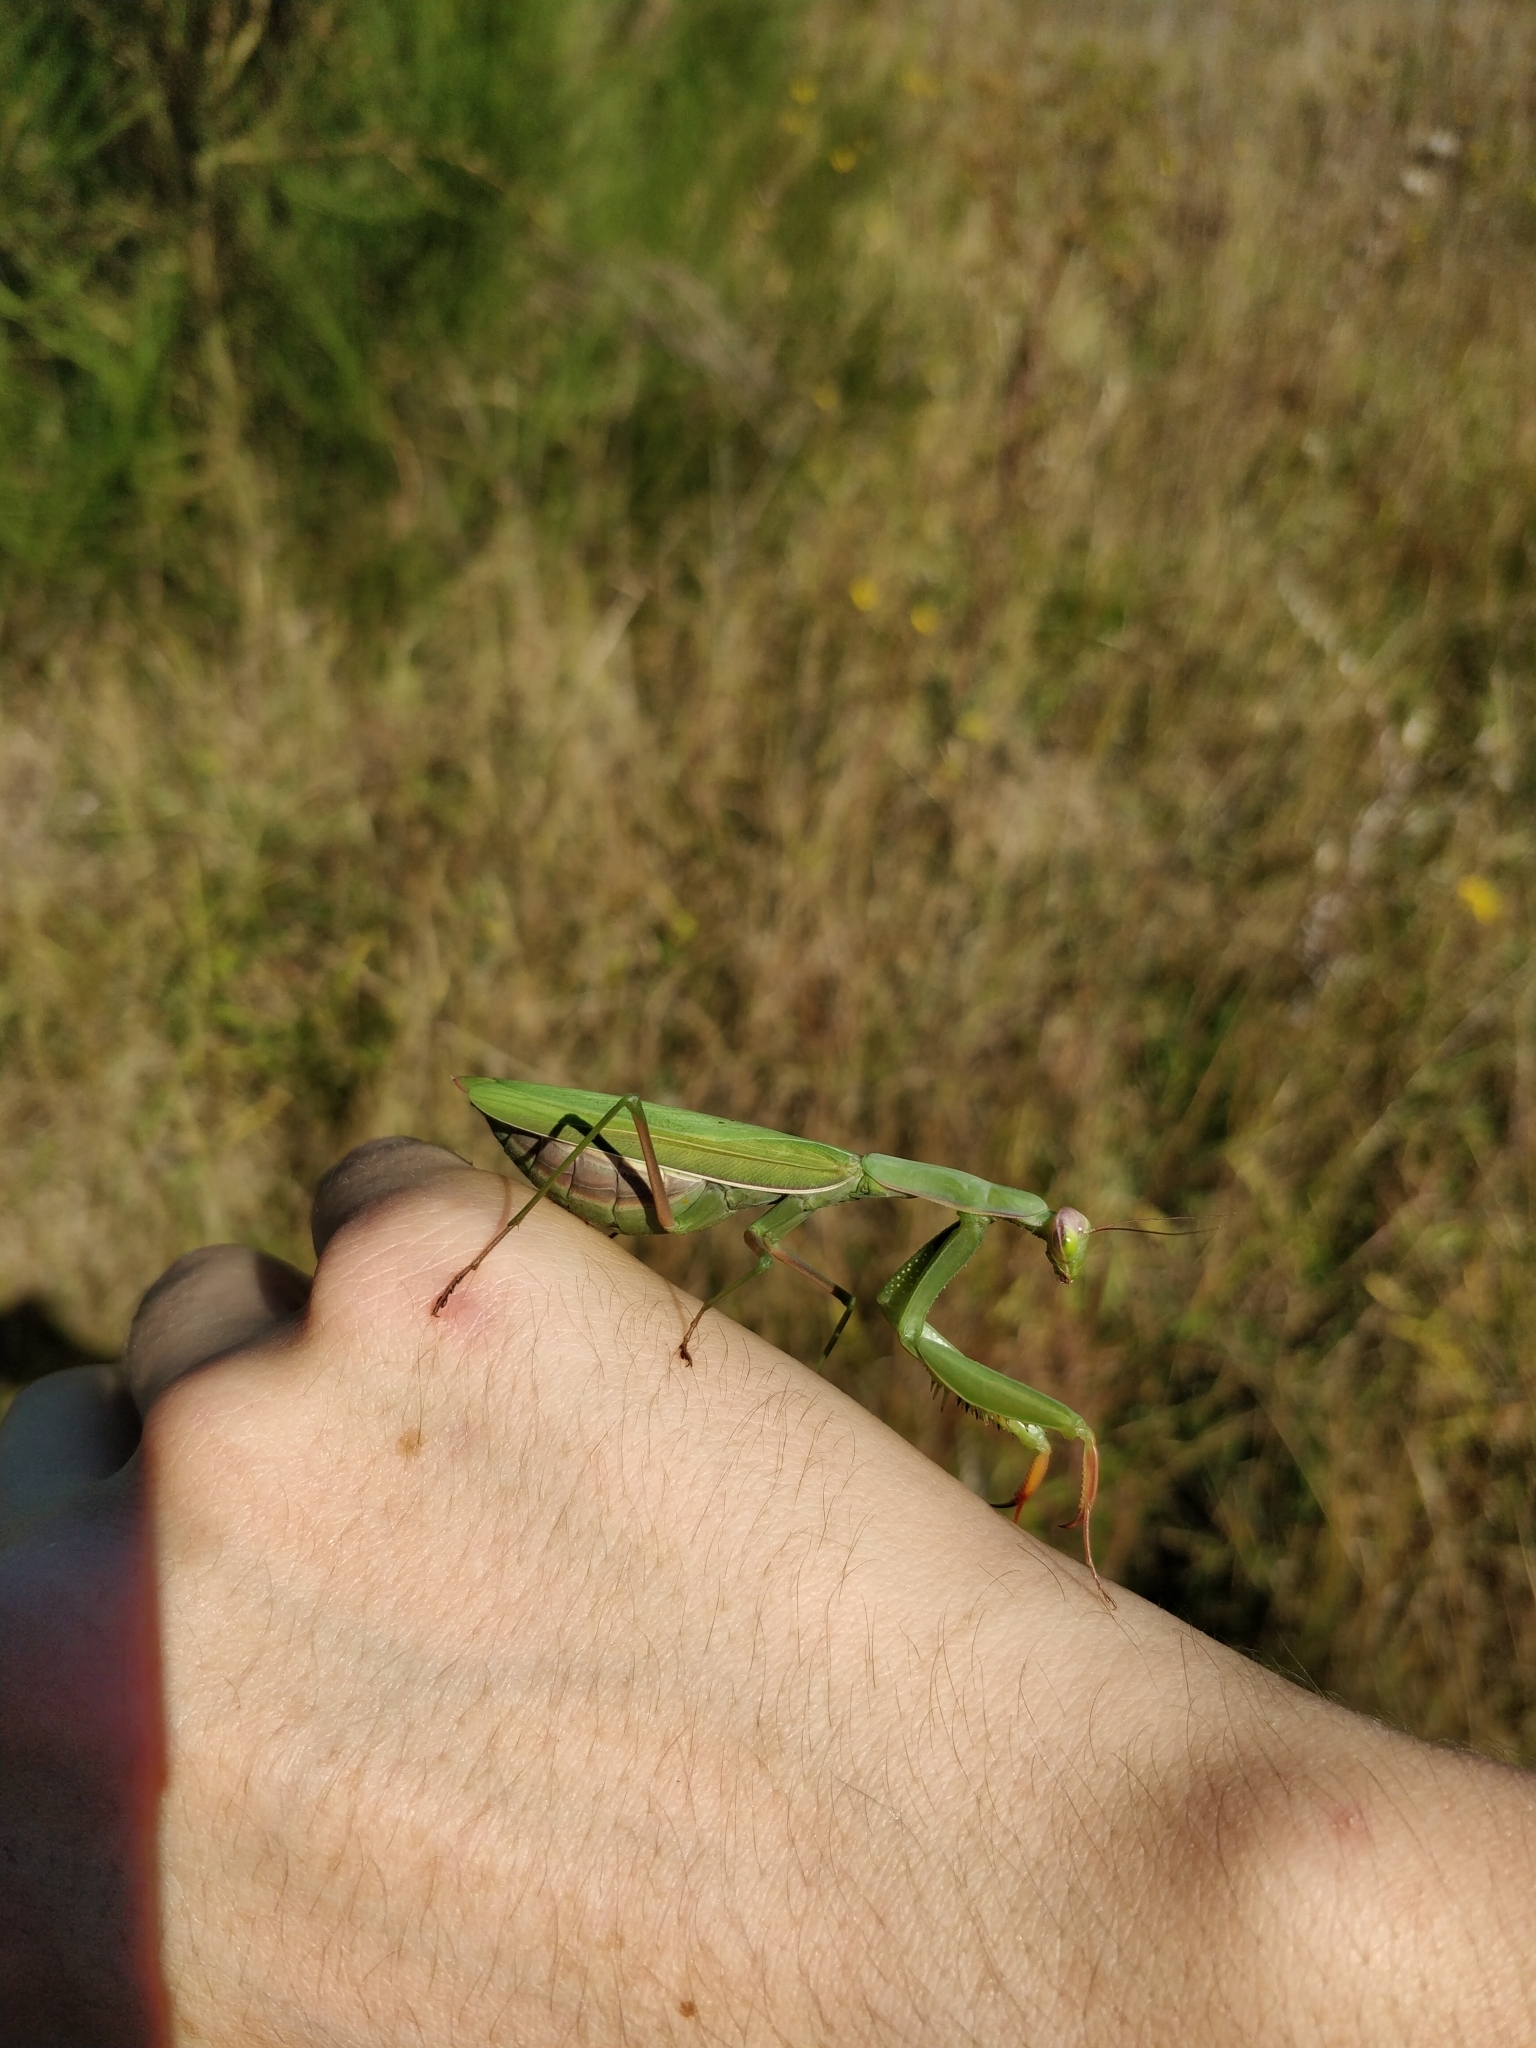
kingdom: Animalia
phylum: Arthropoda
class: Insecta
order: Mantodea
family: Mantidae
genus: Mantis
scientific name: Mantis religiosa
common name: Praying mantis
